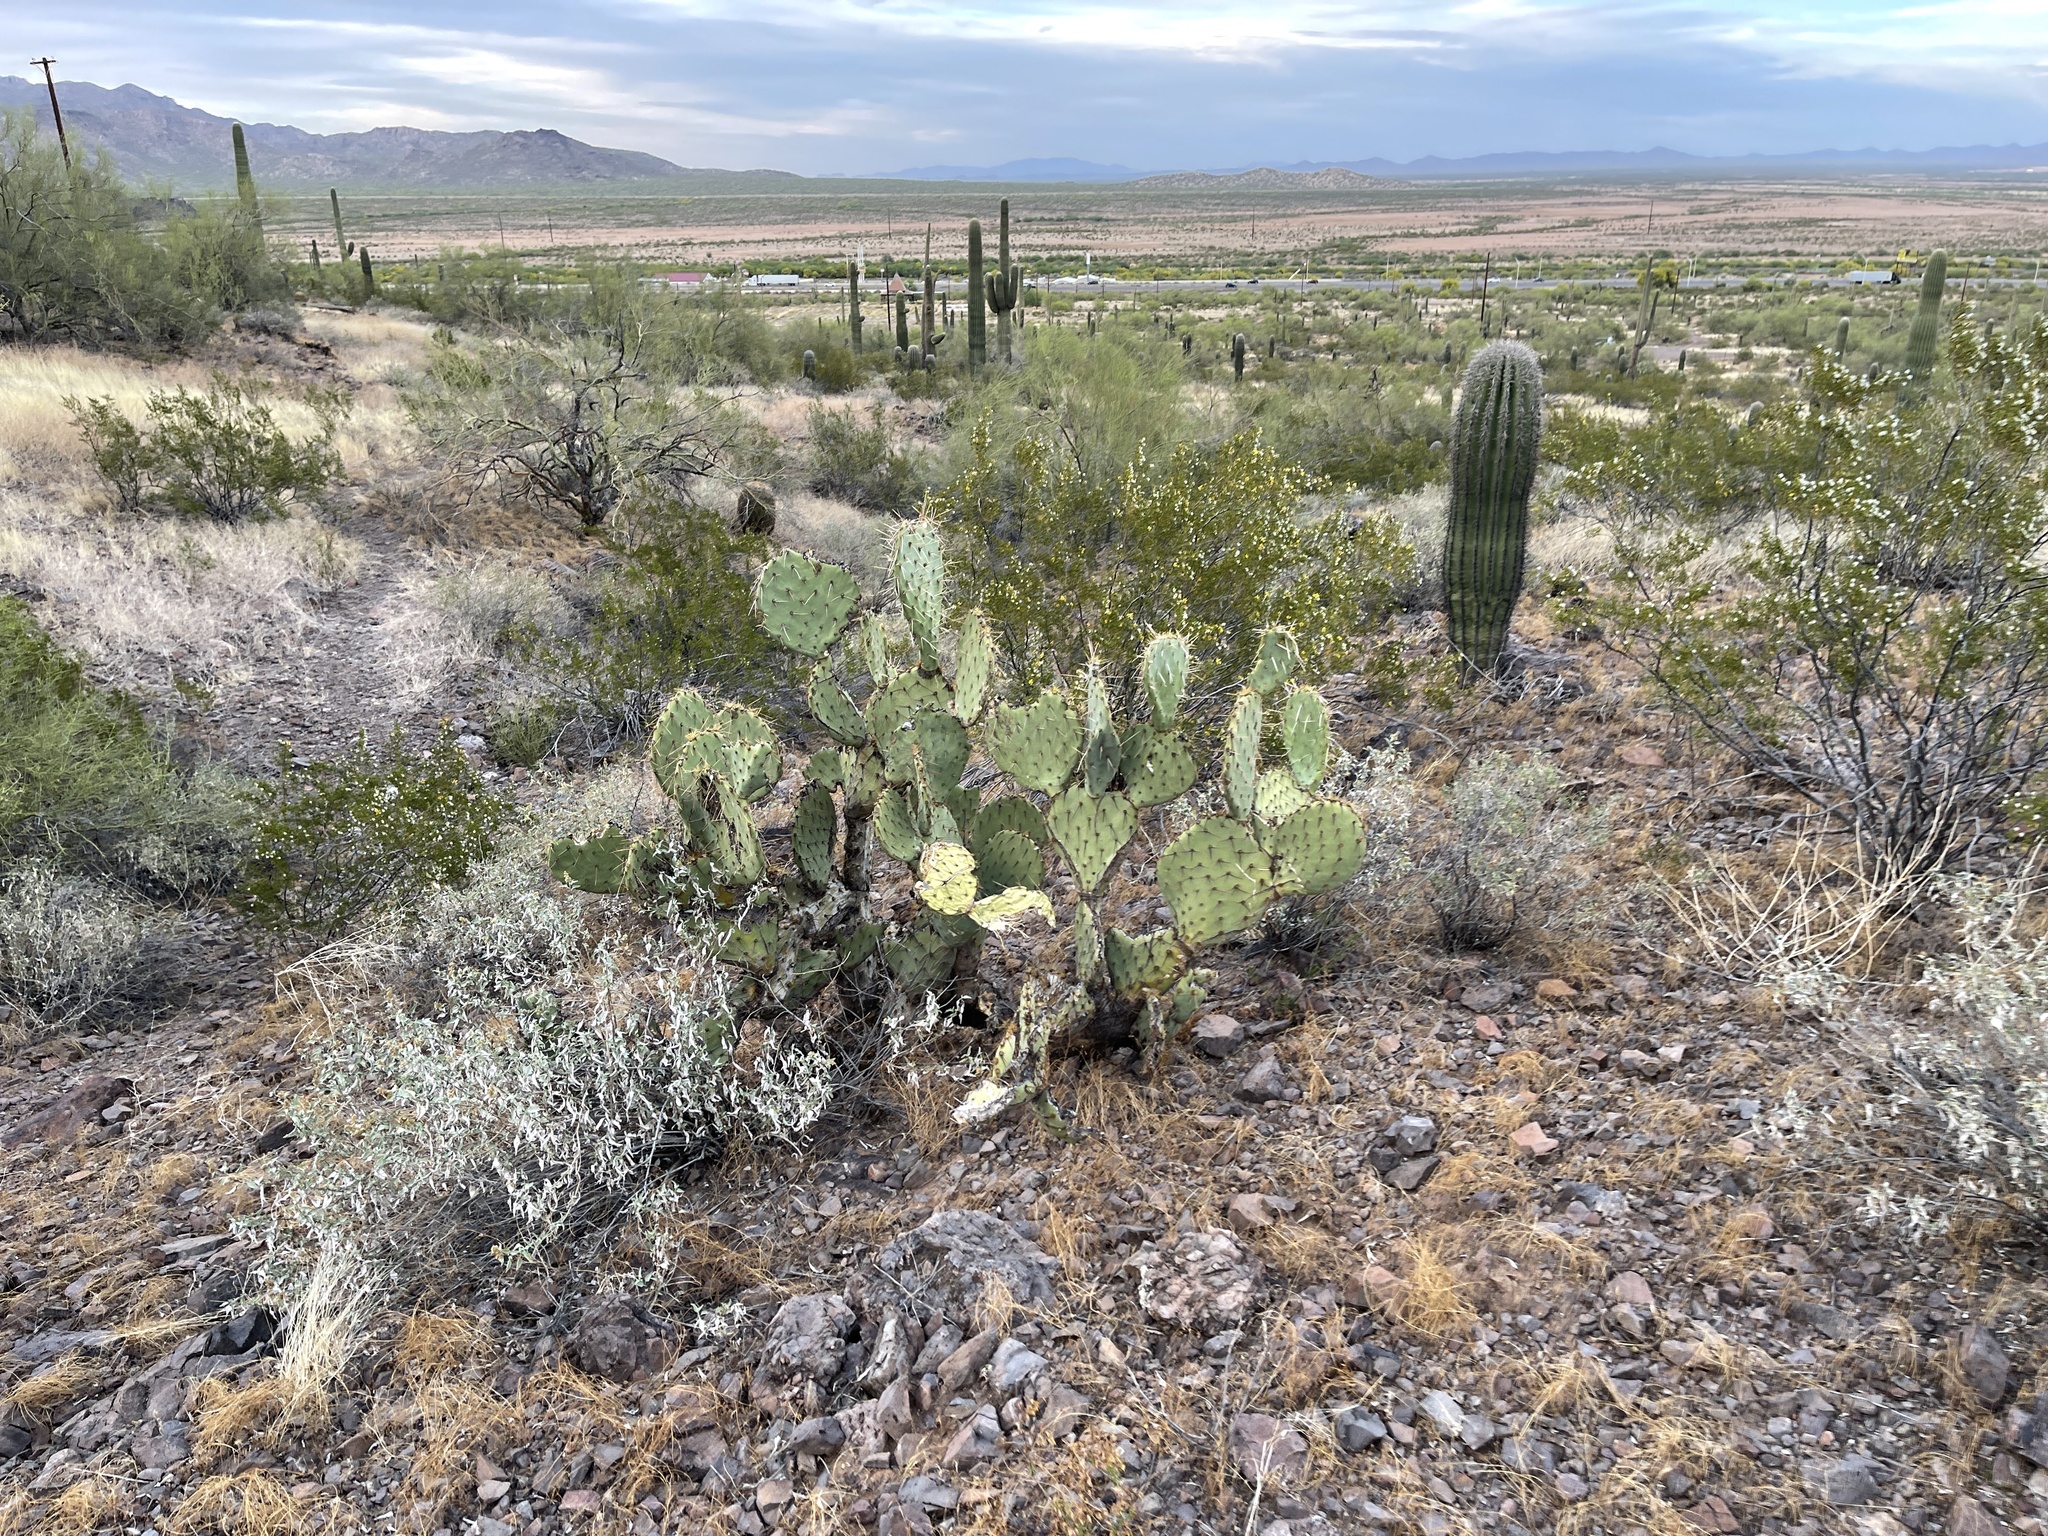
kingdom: Plantae
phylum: Tracheophyta
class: Magnoliopsida
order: Caryophyllales
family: Cactaceae
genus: Opuntia
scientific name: Opuntia engelmannii
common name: Cactus-apple
